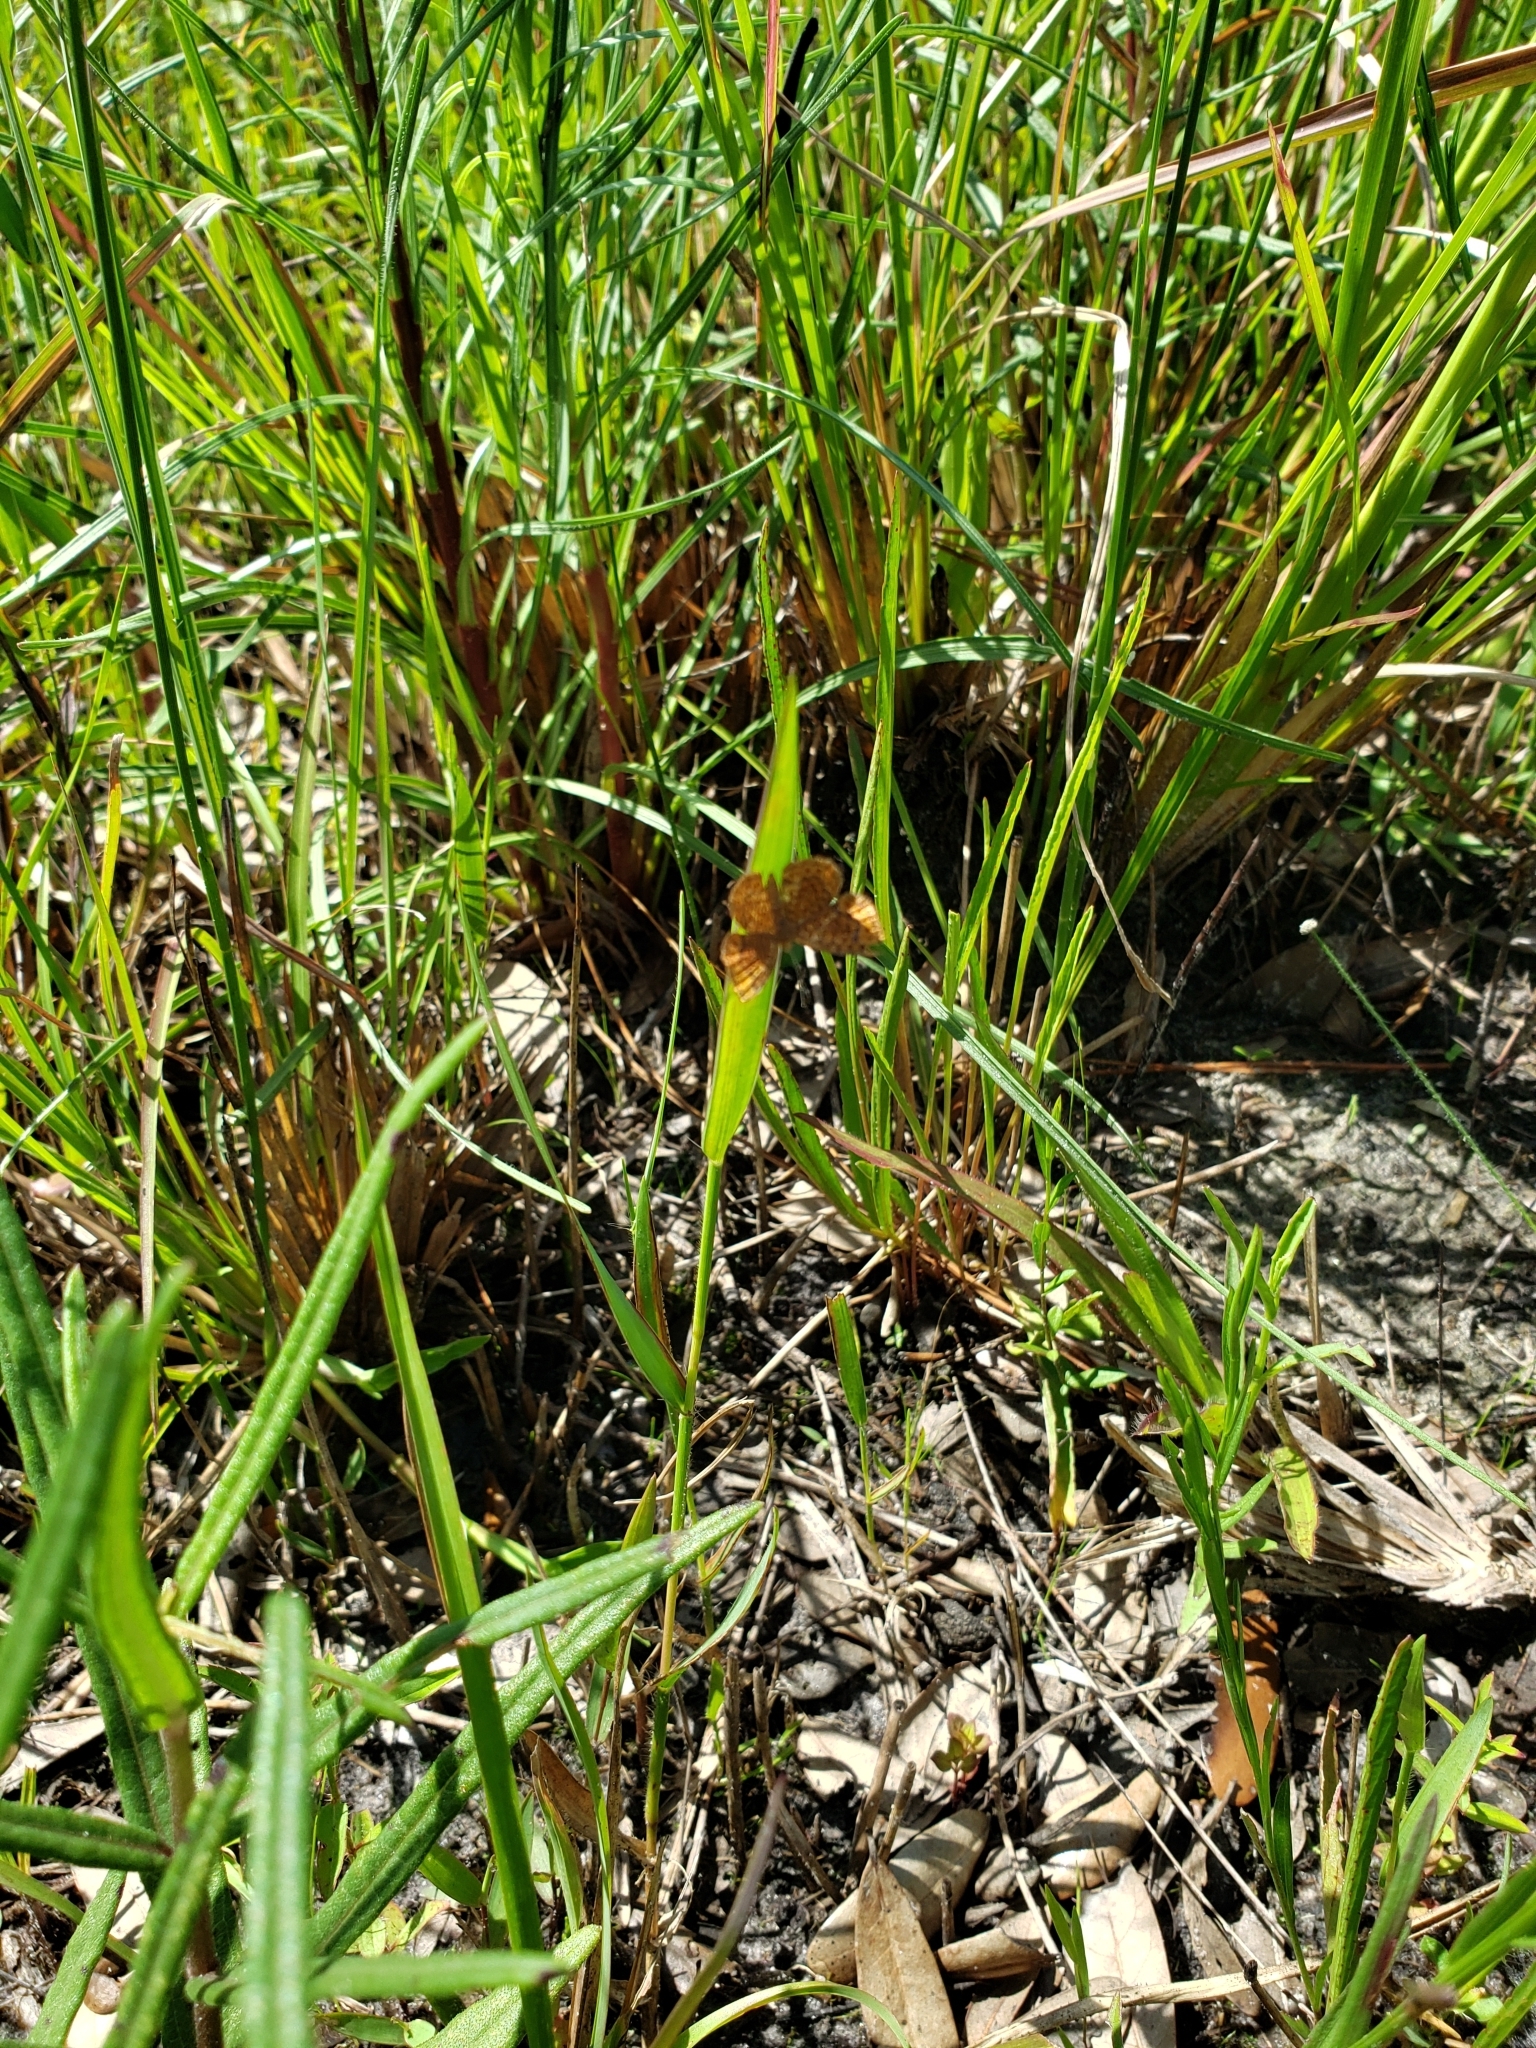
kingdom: Animalia
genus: Calephelis
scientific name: Calephelis virginiensis
